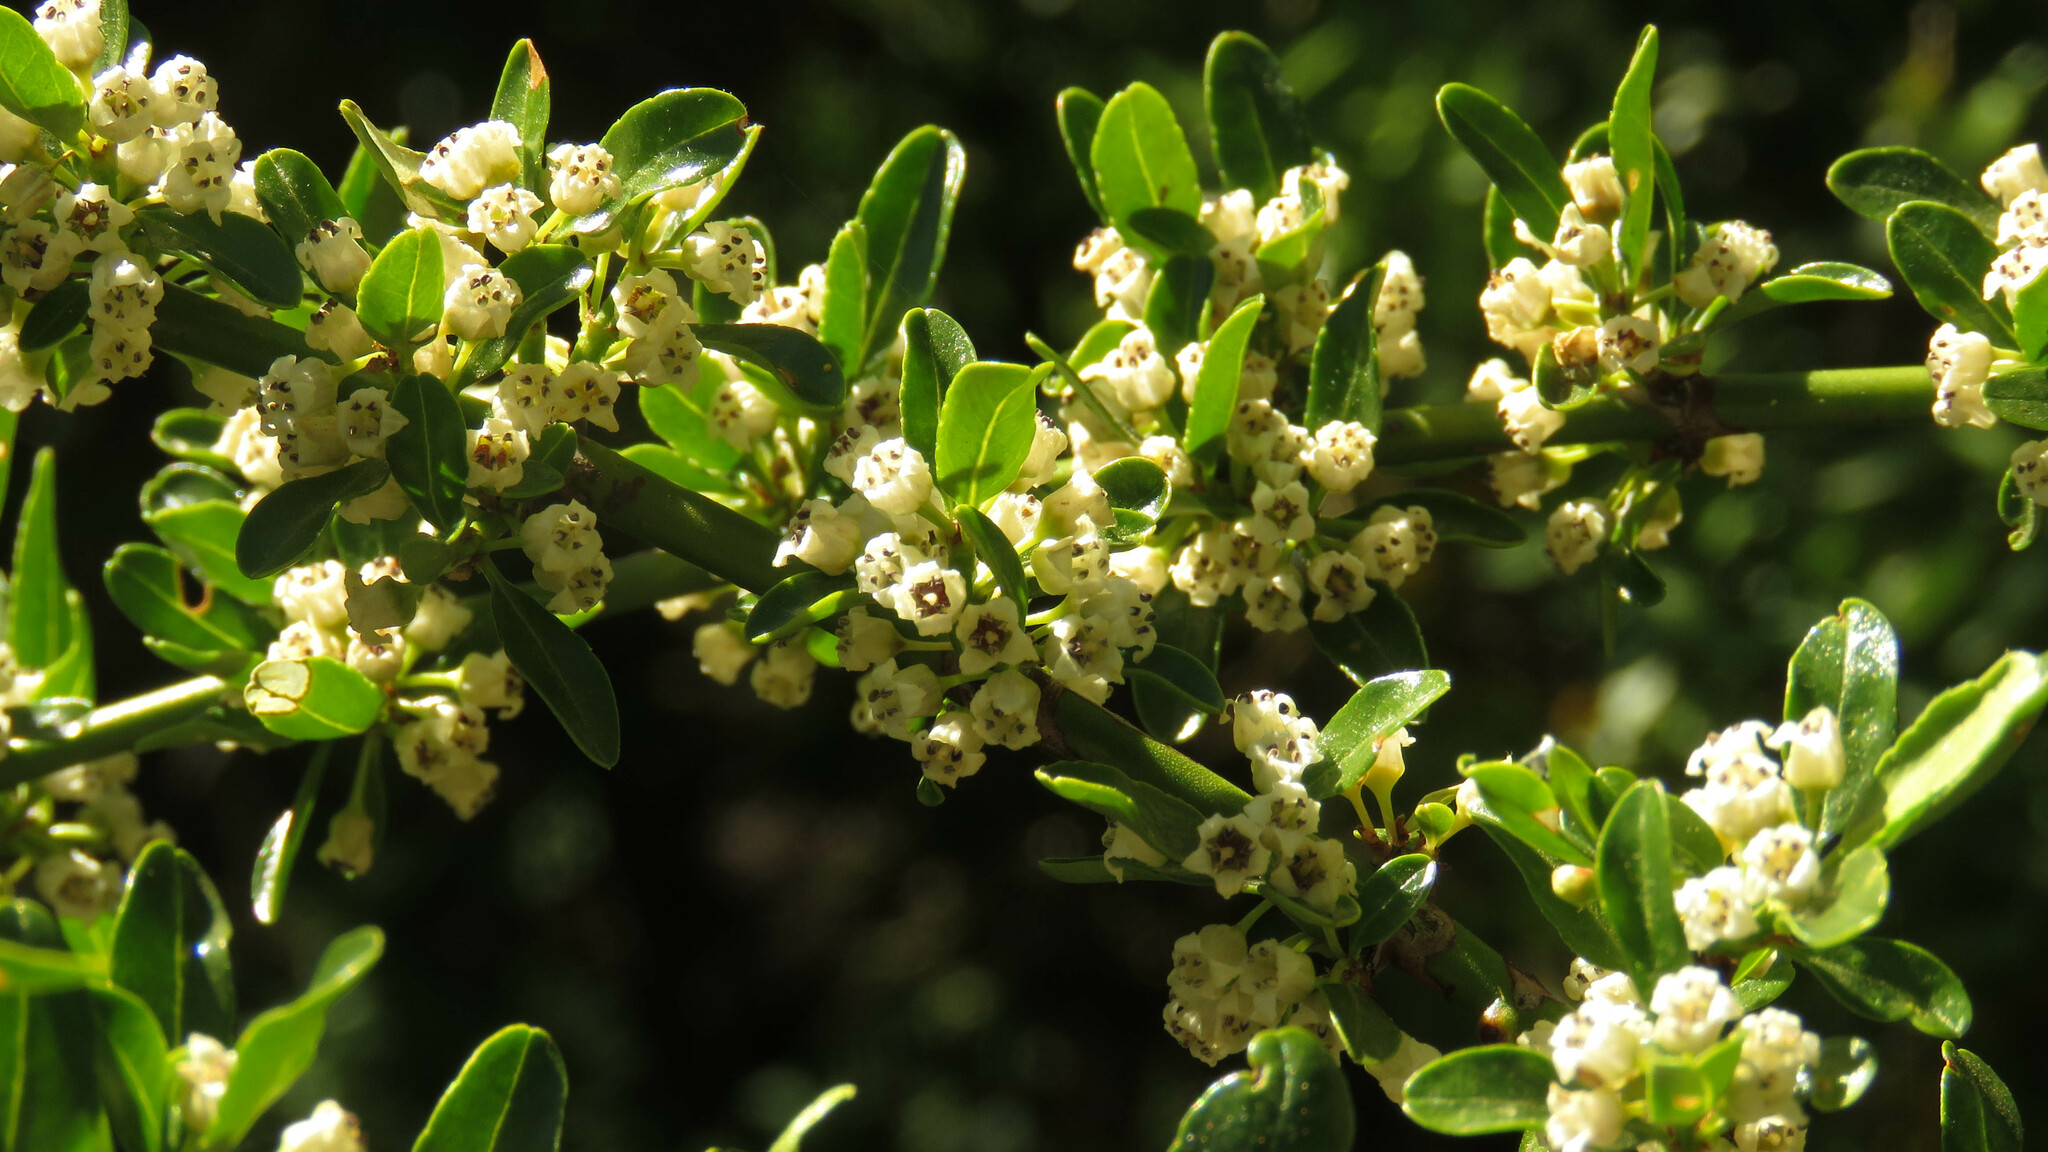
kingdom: Plantae
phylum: Tracheophyta
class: Magnoliopsida
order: Rosales
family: Rhamnaceae
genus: Discaria
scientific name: Discaria chacaye
